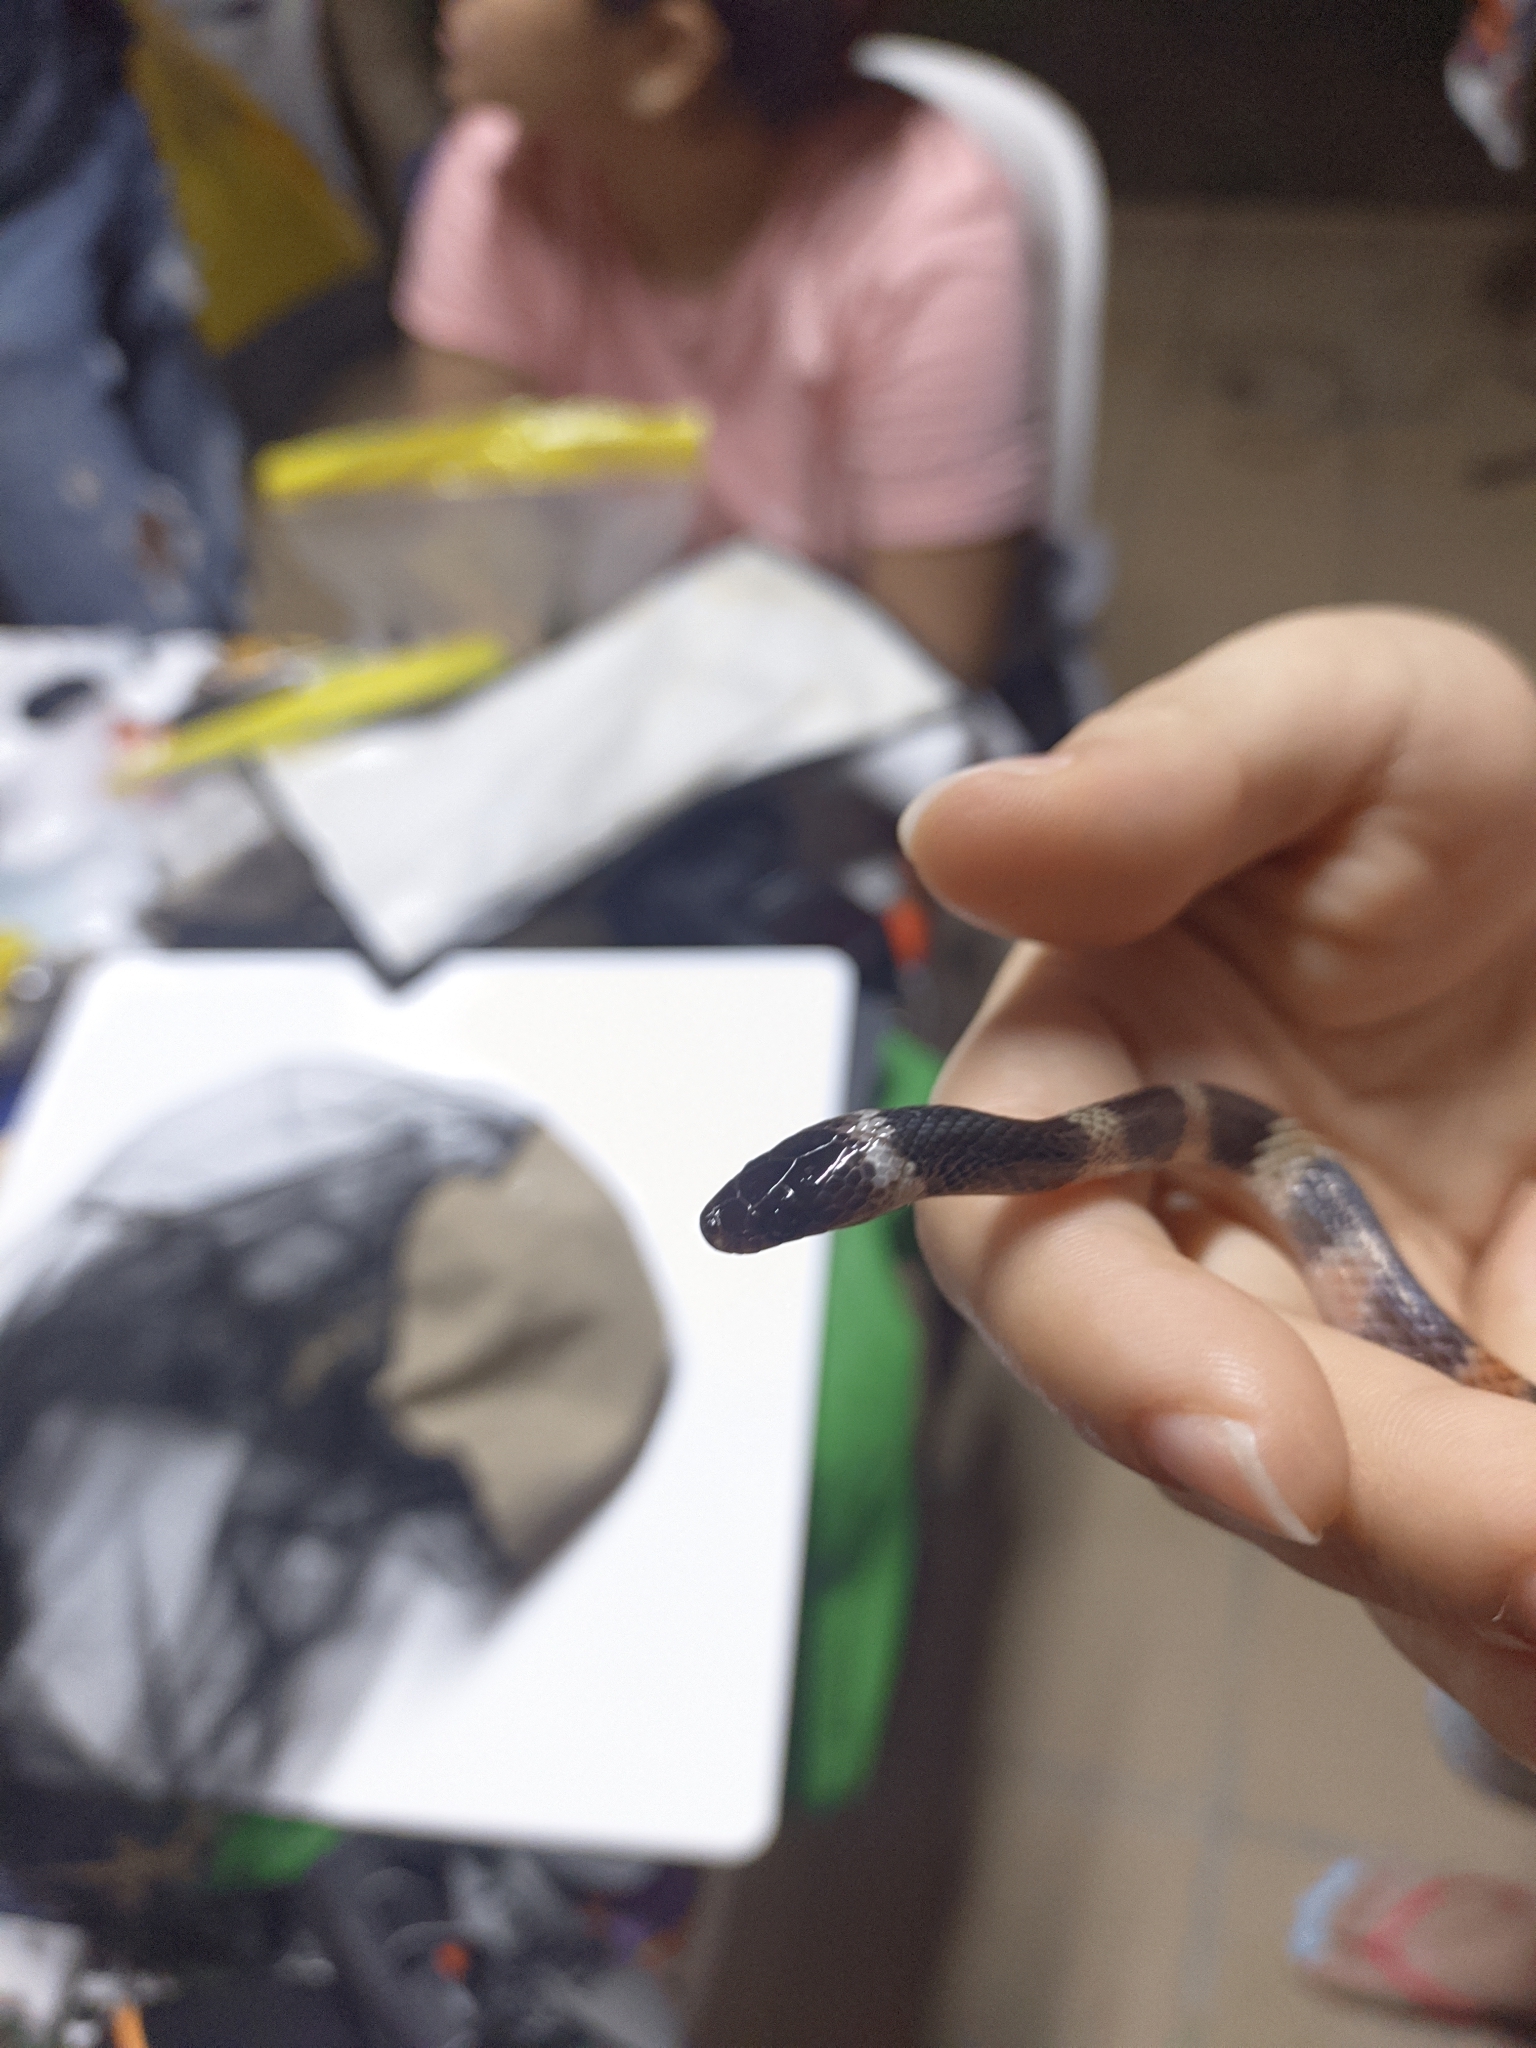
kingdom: Animalia
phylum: Chordata
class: Squamata
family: Colubridae
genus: Oxyrhopus
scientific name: Oxyrhopus petolarius
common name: Forest flame snake
